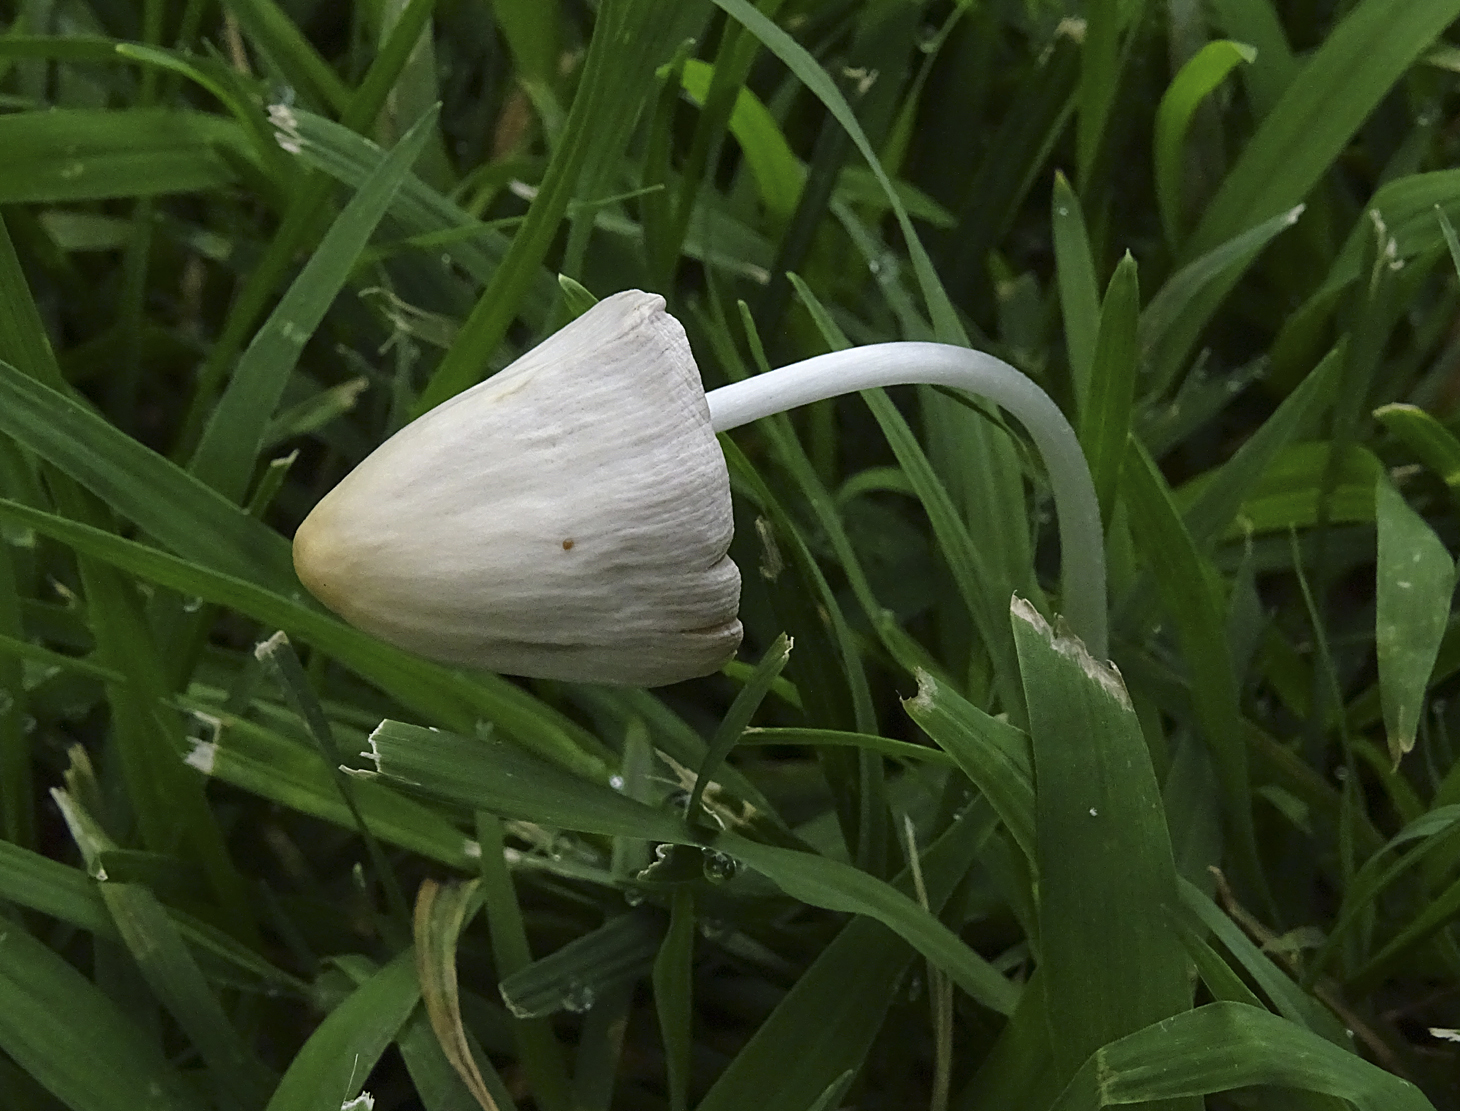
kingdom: Fungi
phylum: Basidiomycota
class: Agaricomycetes
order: Agaricales
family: Bolbitiaceae
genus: Conocybe
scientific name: Conocybe apala
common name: Milky conecap
